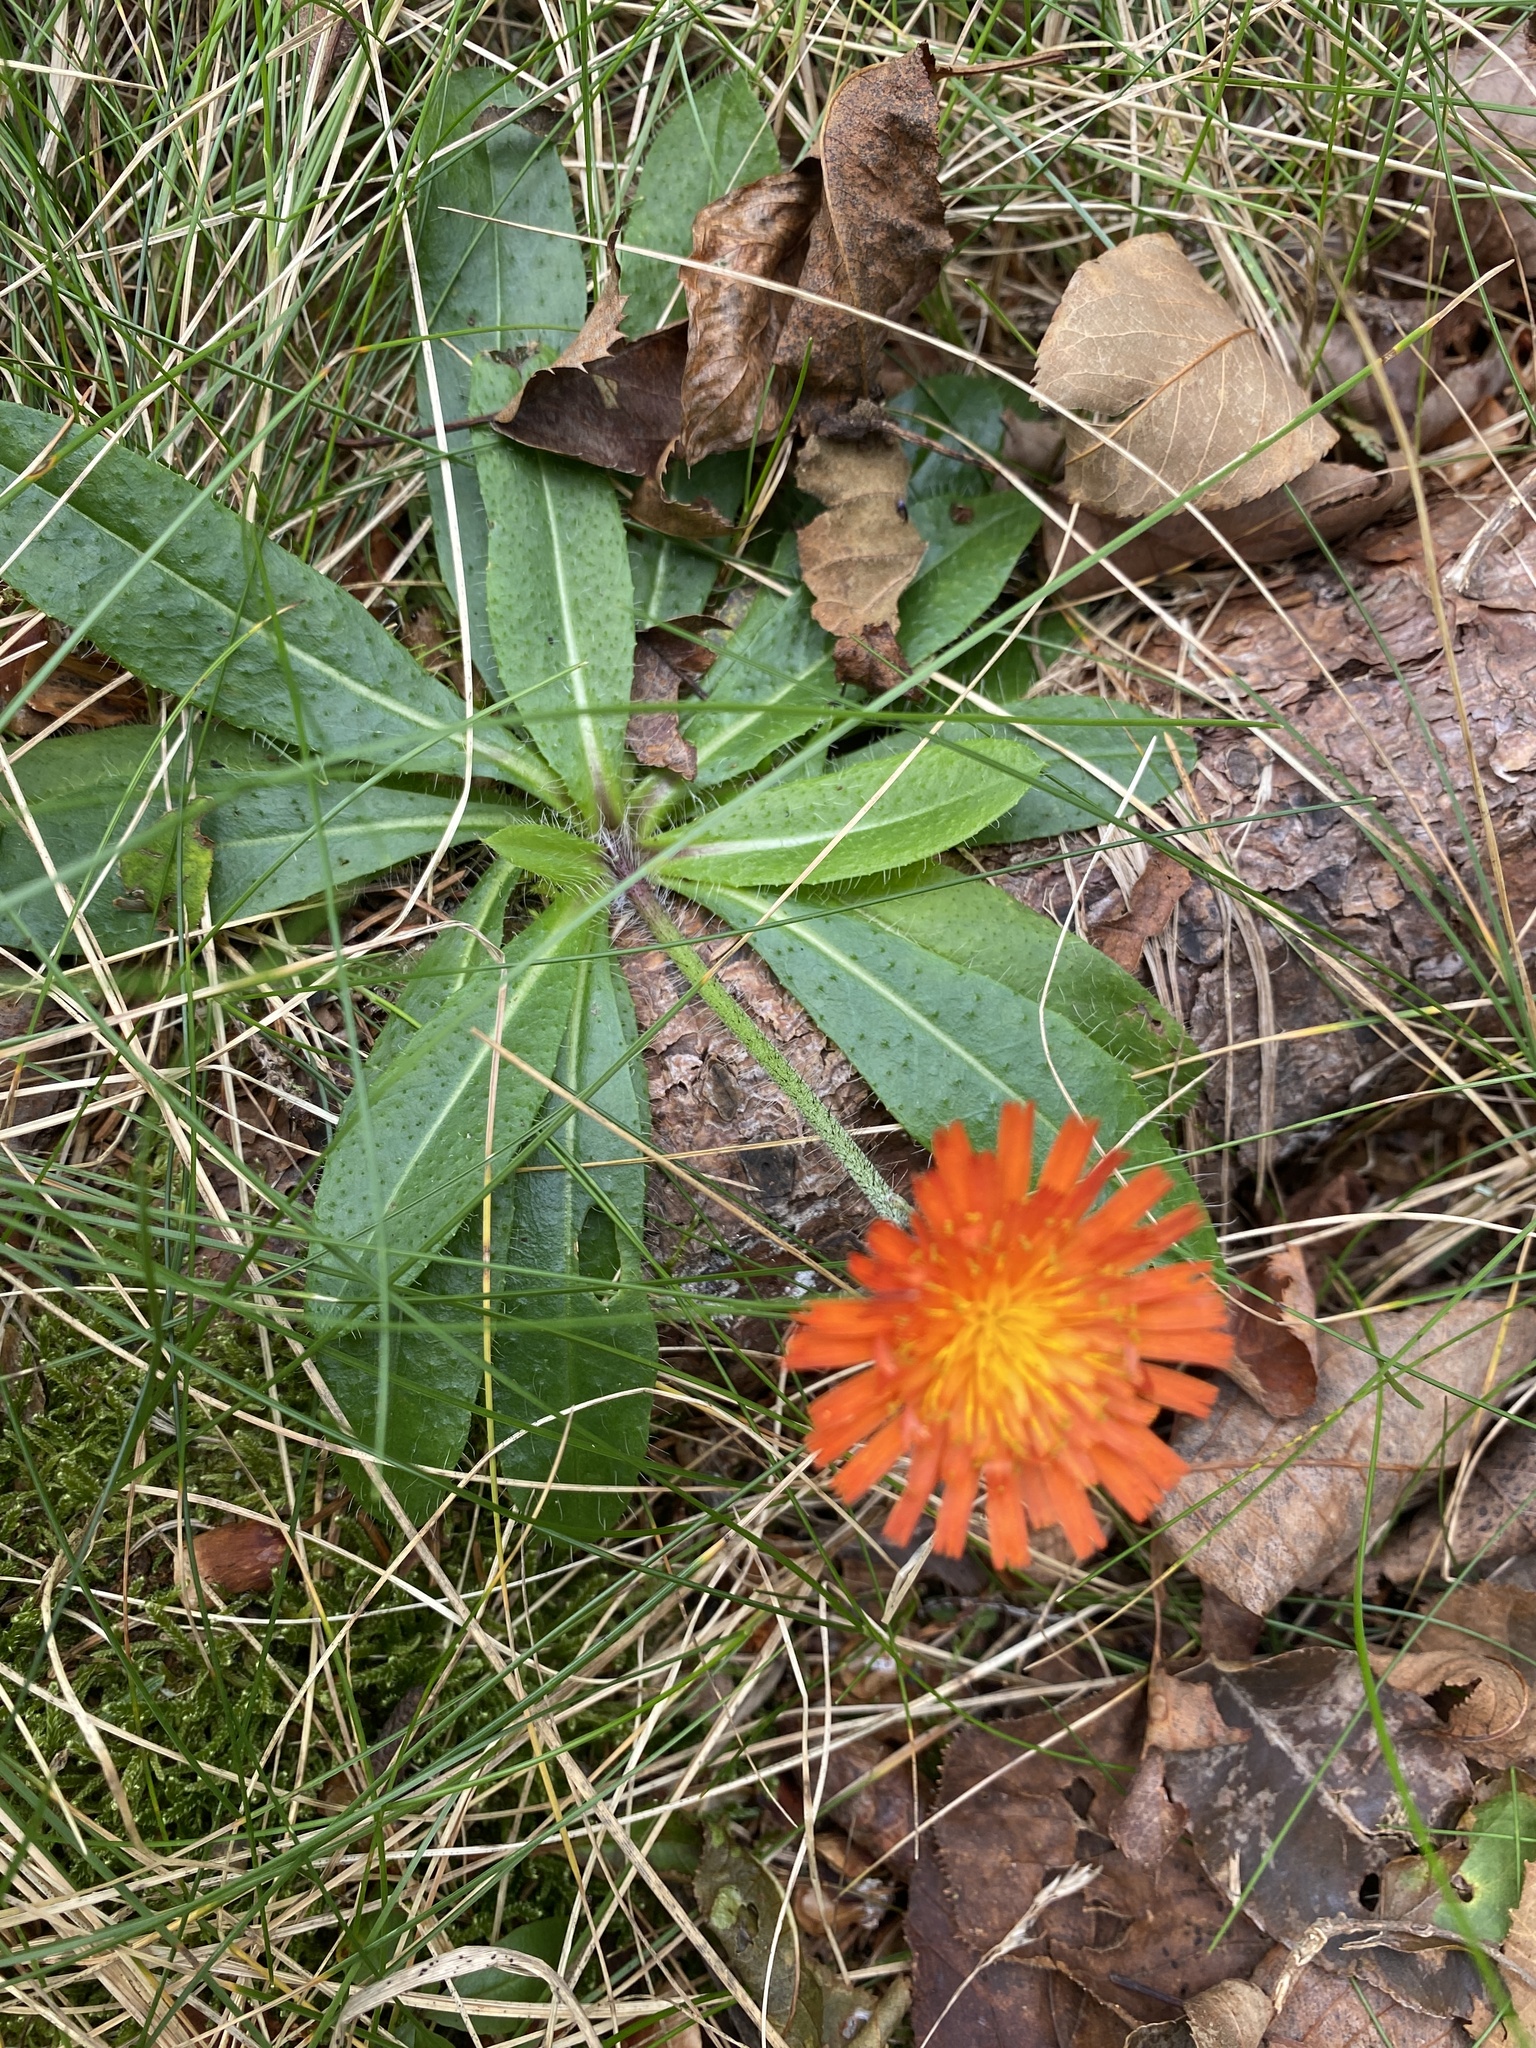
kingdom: Plantae
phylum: Tracheophyta
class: Magnoliopsida
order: Asterales
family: Asteraceae
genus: Pilosella
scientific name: Pilosella aurantiaca
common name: Fox-and-cubs
